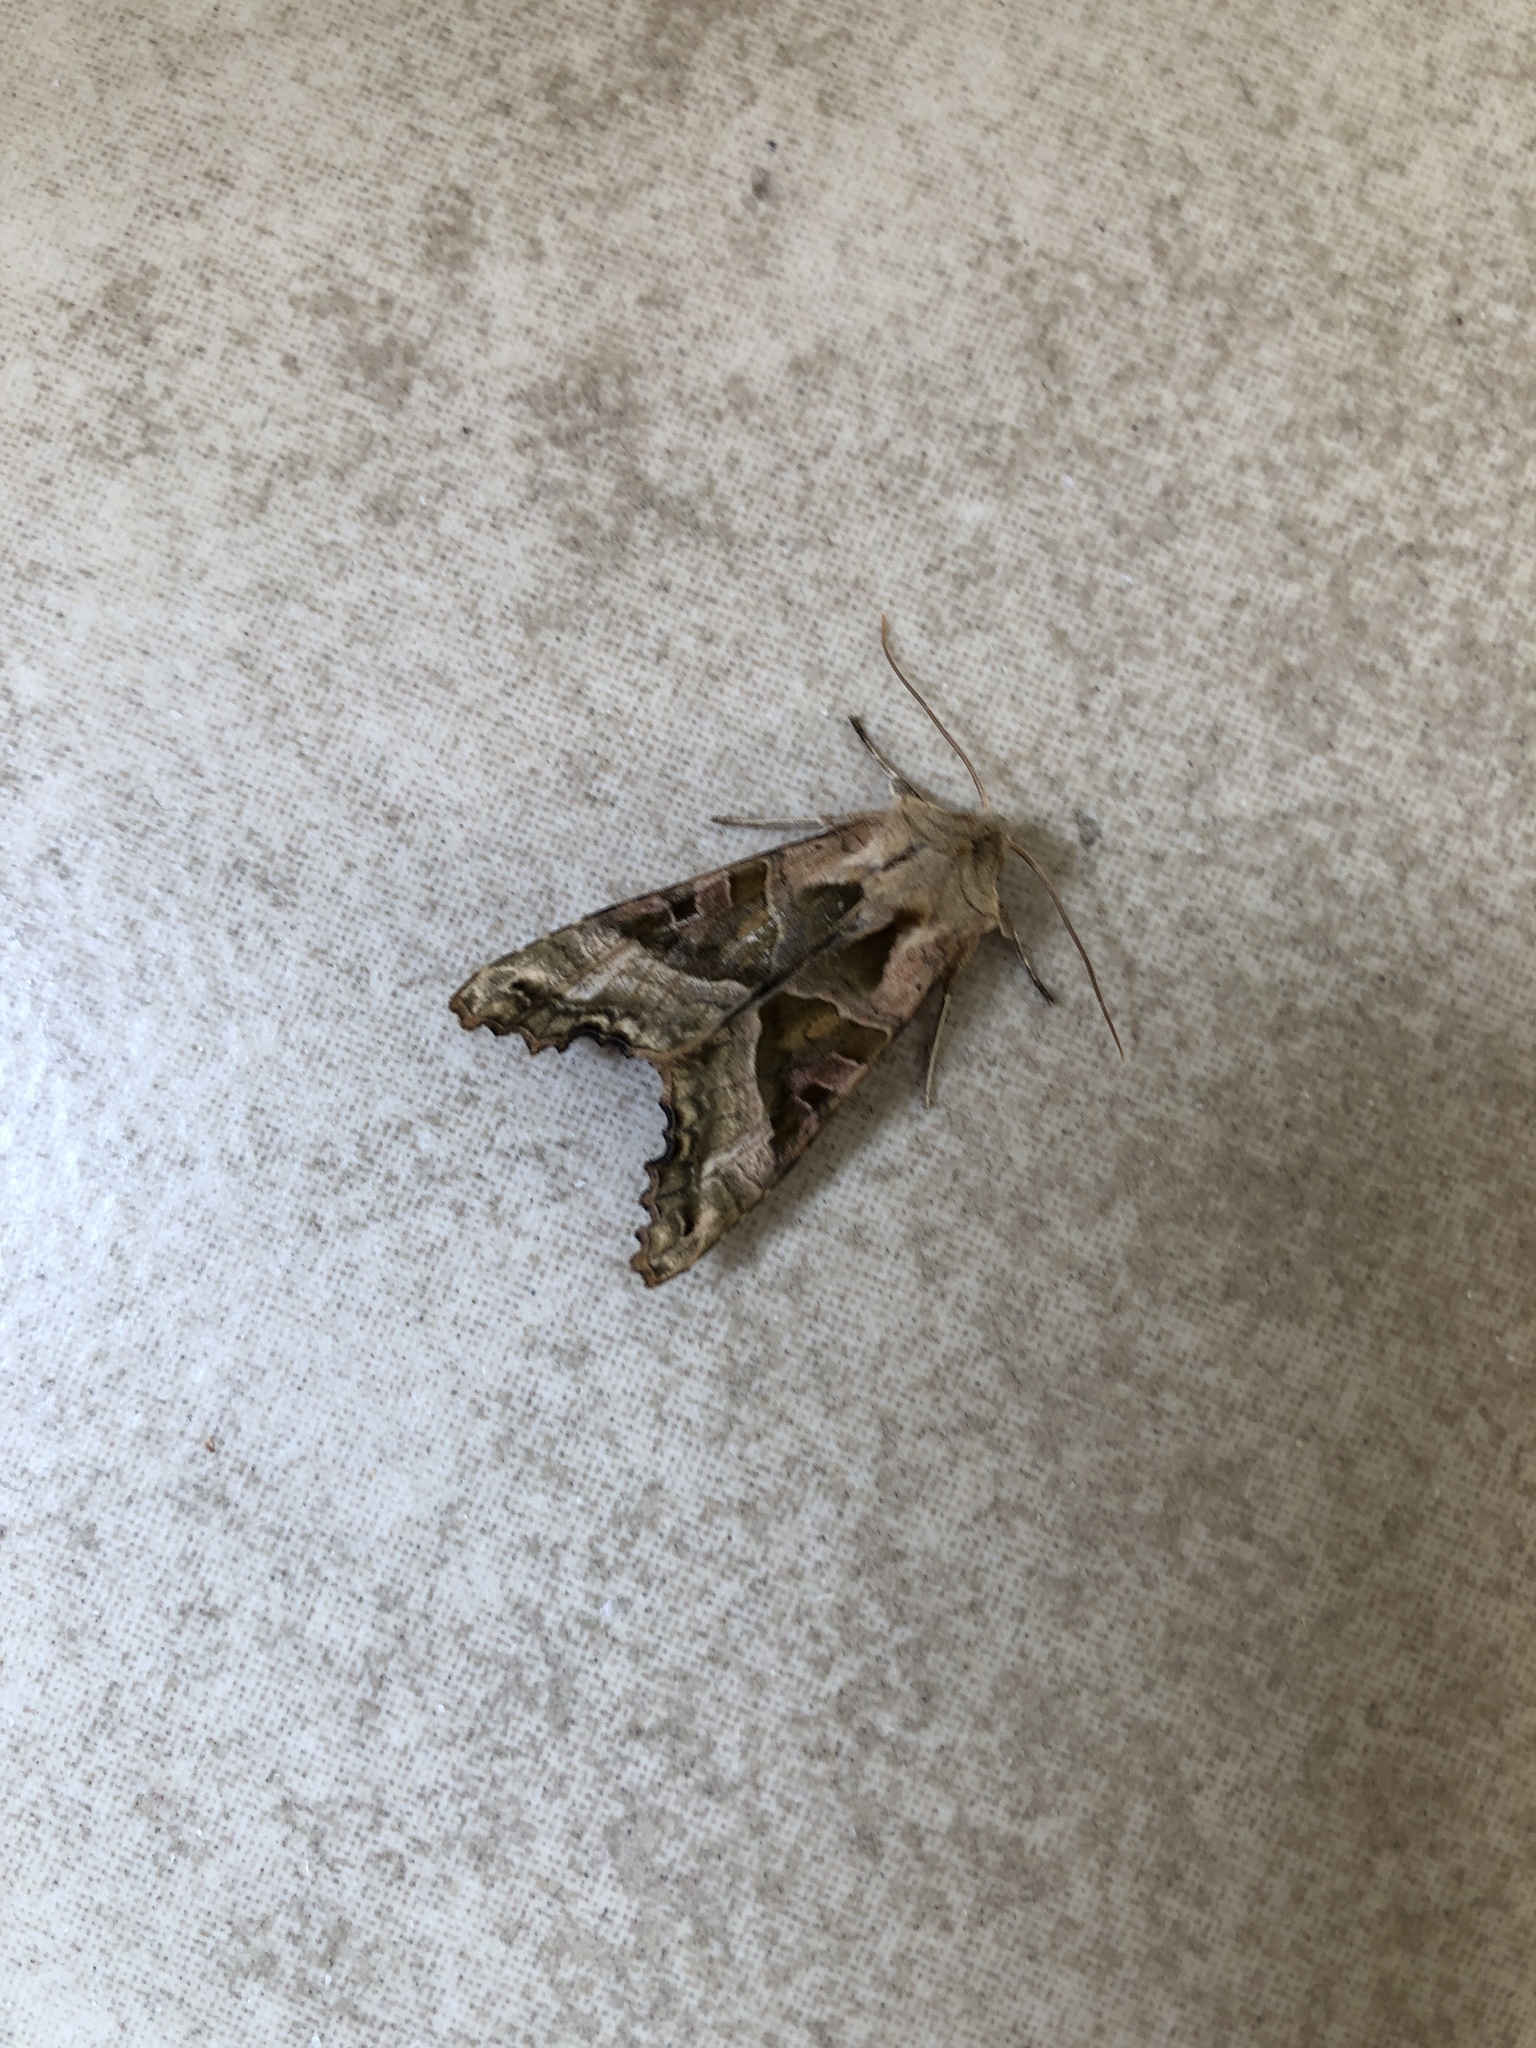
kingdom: Animalia
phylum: Arthropoda
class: Insecta
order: Lepidoptera
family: Noctuidae
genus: Phlogophora
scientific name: Phlogophora meticulosa
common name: Angle shades
